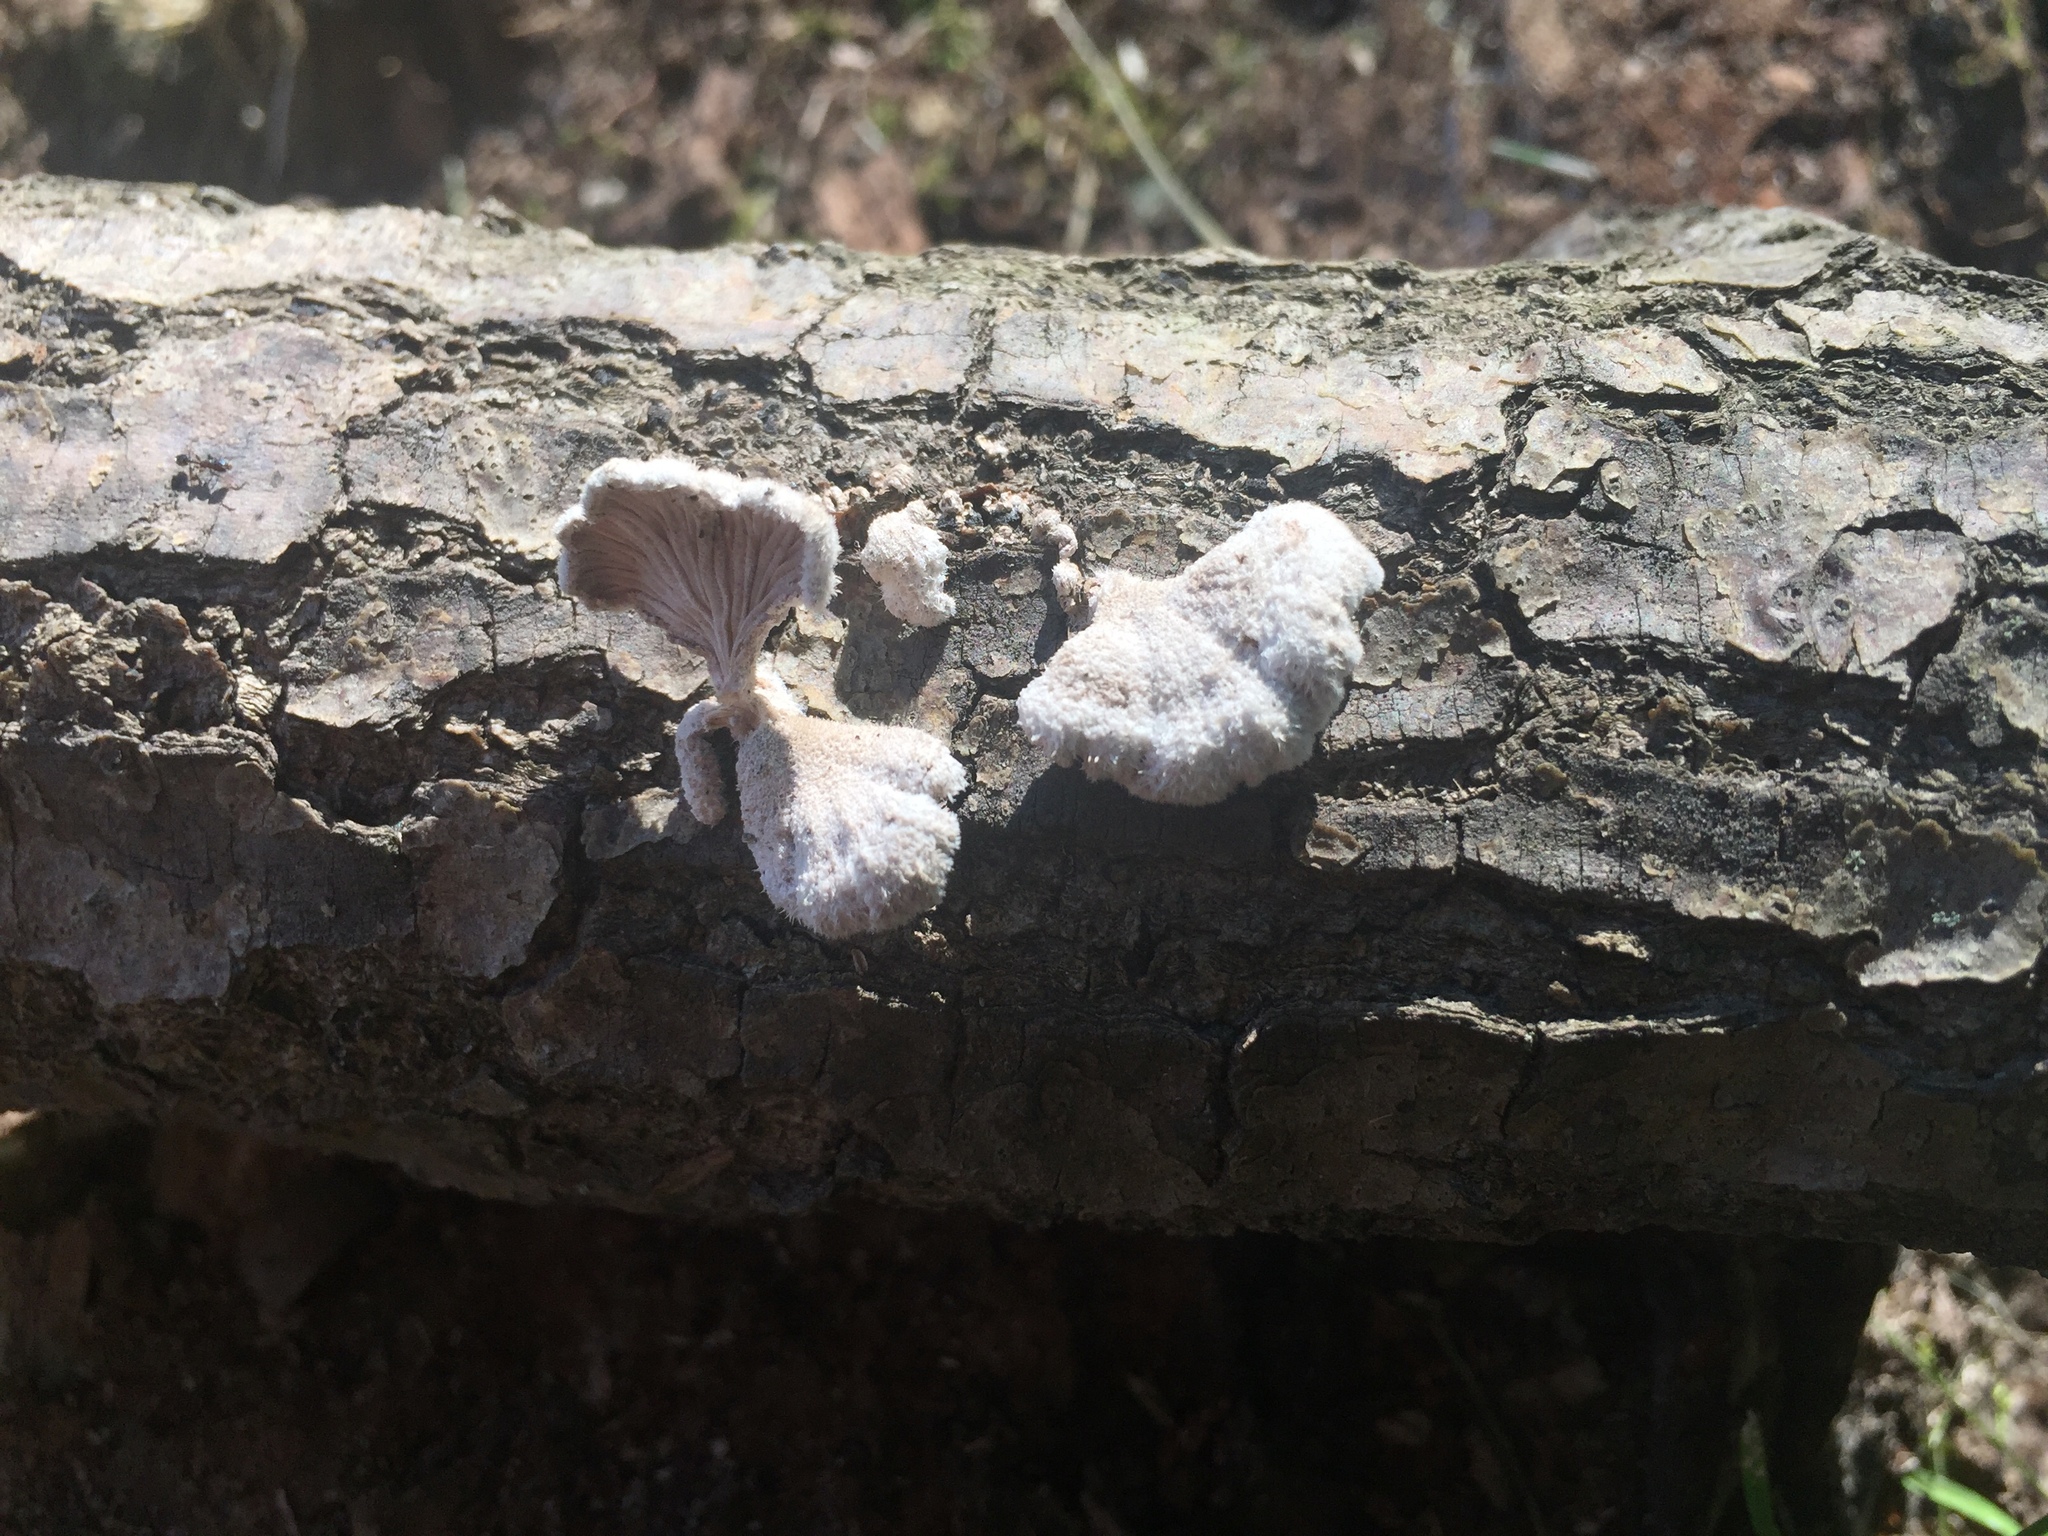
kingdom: Fungi
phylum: Basidiomycota
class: Agaricomycetes
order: Agaricales
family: Schizophyllaceae
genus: Schizophyllum
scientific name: Schizophyllum commune
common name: Common porecrust
